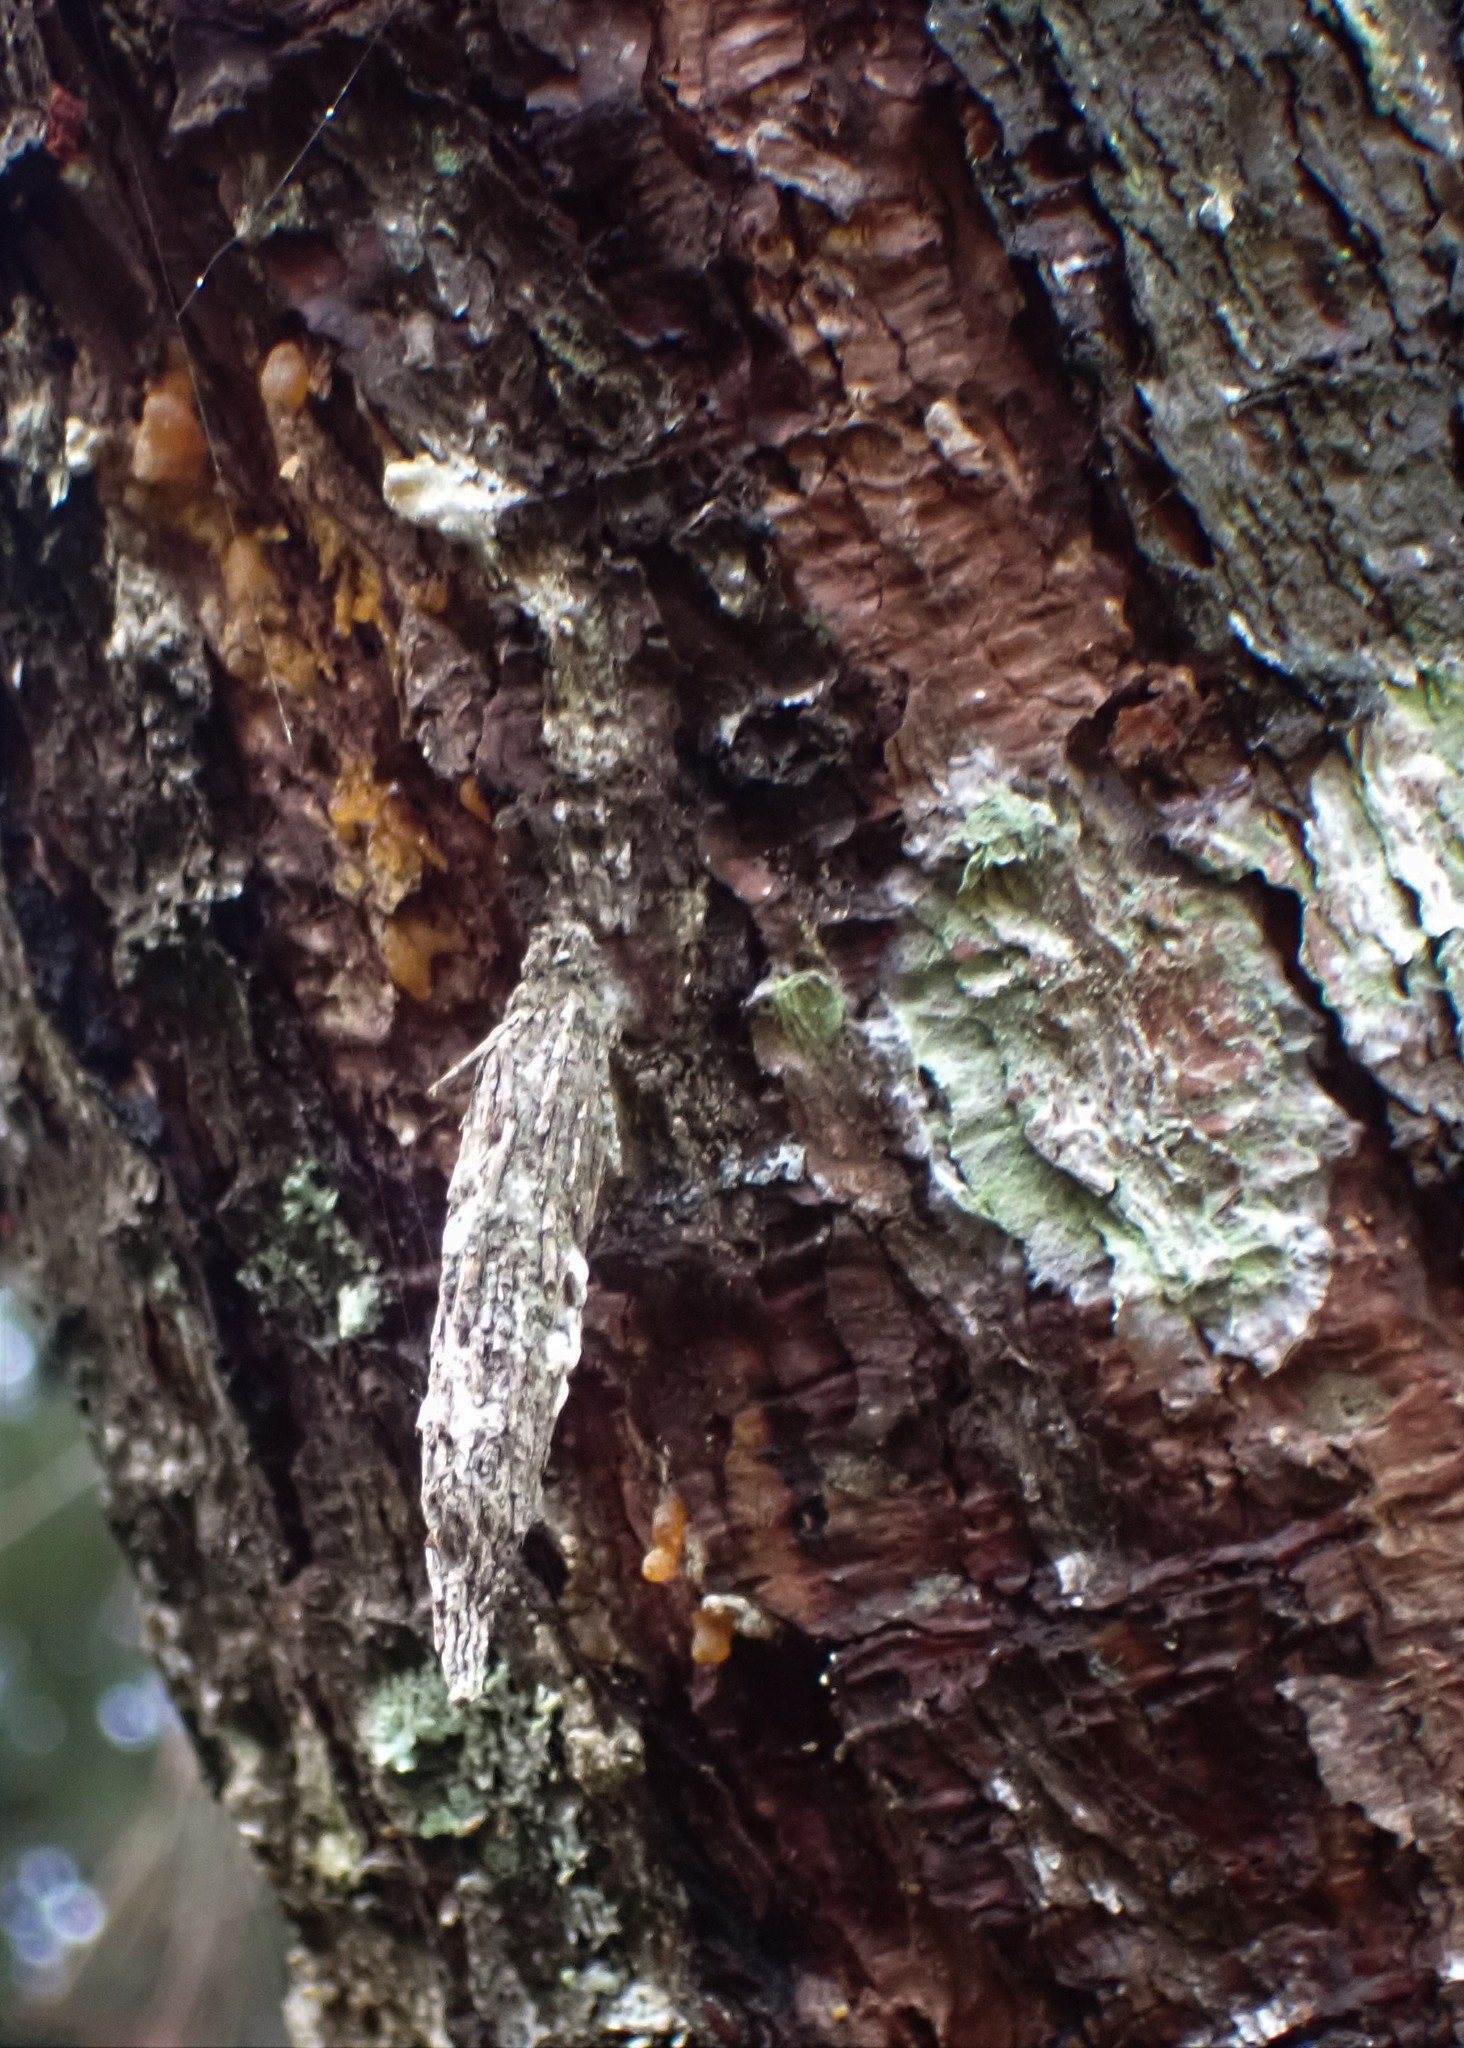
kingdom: Animalia
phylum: Arthropoda
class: Insecta
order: Lepidoptera
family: Psychidae
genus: Liothula
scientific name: Liothula omnivora
